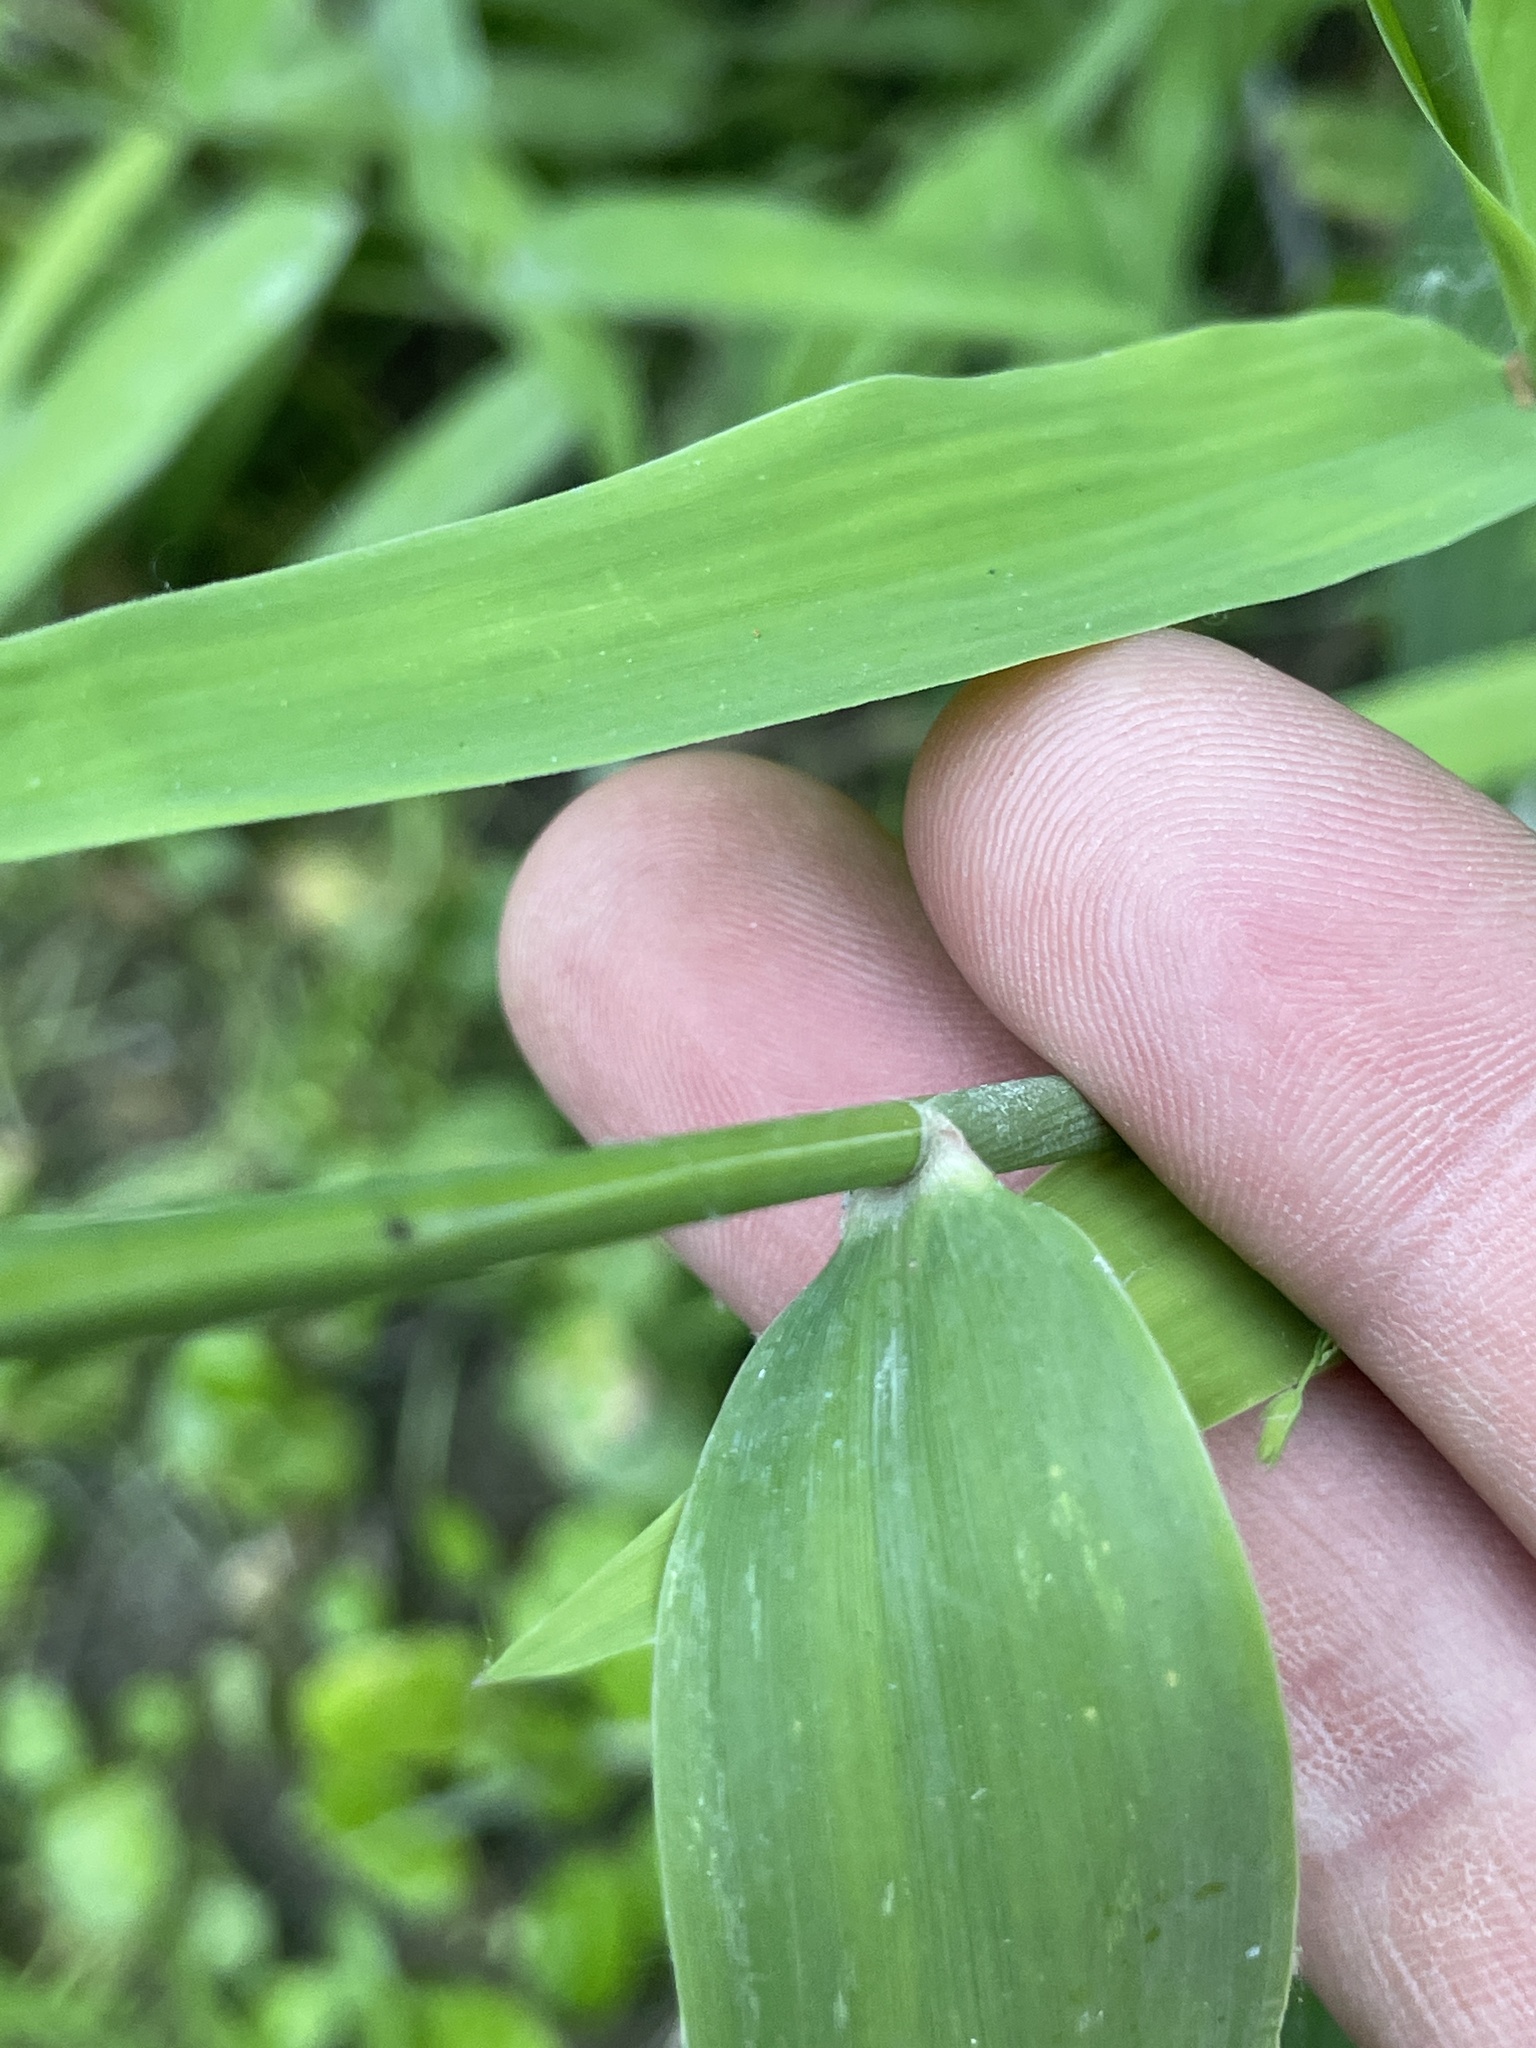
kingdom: Plantae
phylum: Tracheophyta
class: Liliopsida
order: Poales
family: Poaceae
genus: Chasmanthium
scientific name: Chasmanthium latifolium
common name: Broad-leaved chasmanthium
